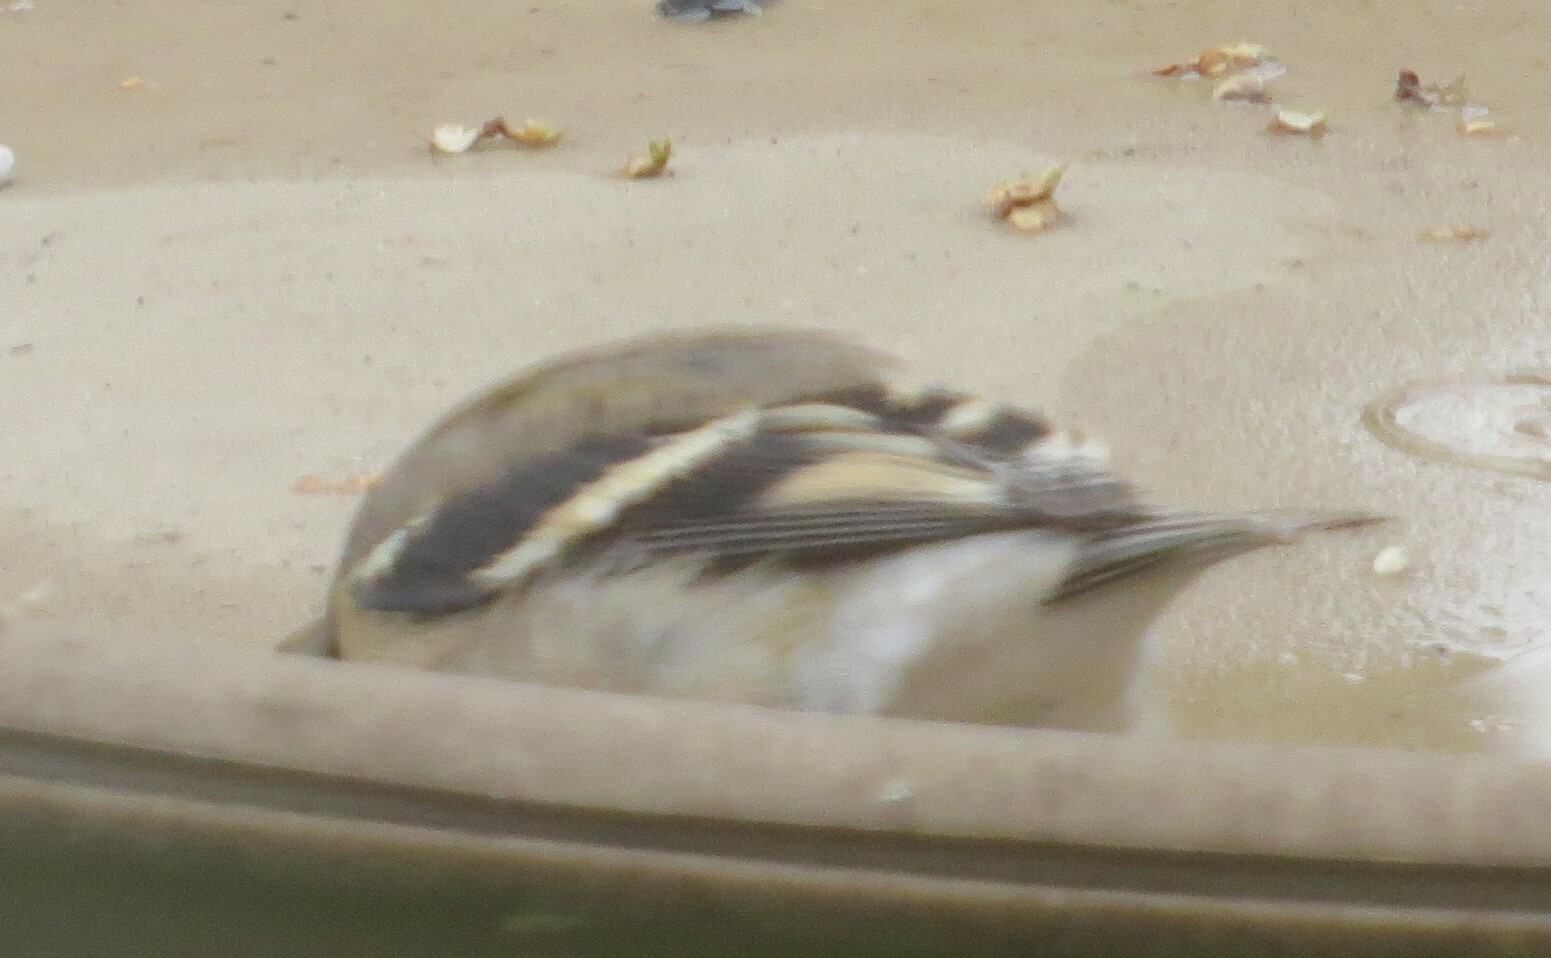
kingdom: Animalia
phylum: Chordata
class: Aves
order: Passeriformes
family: Fringillidae
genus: Spinus
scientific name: Spinus tristis
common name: American goldfinch
